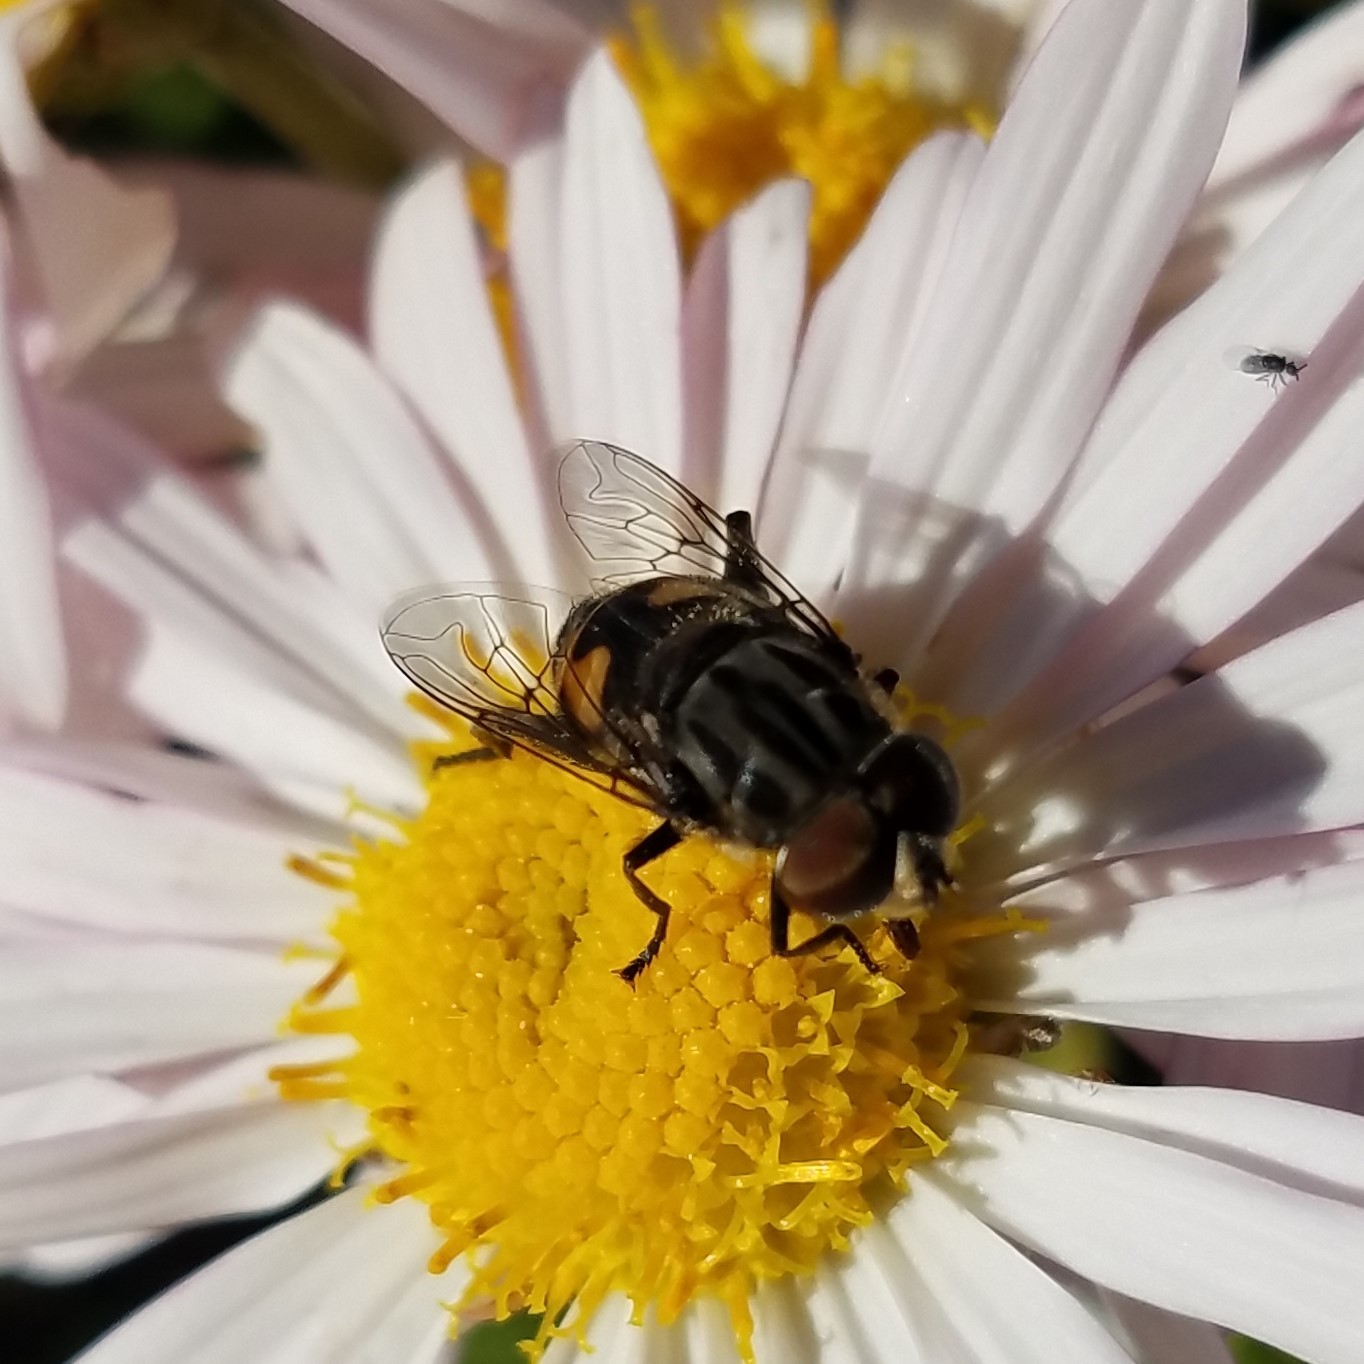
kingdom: Animalia
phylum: Arthropoda
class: Insecta
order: Diptera
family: Syrphidae
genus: Palpada
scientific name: Palpada furcata
